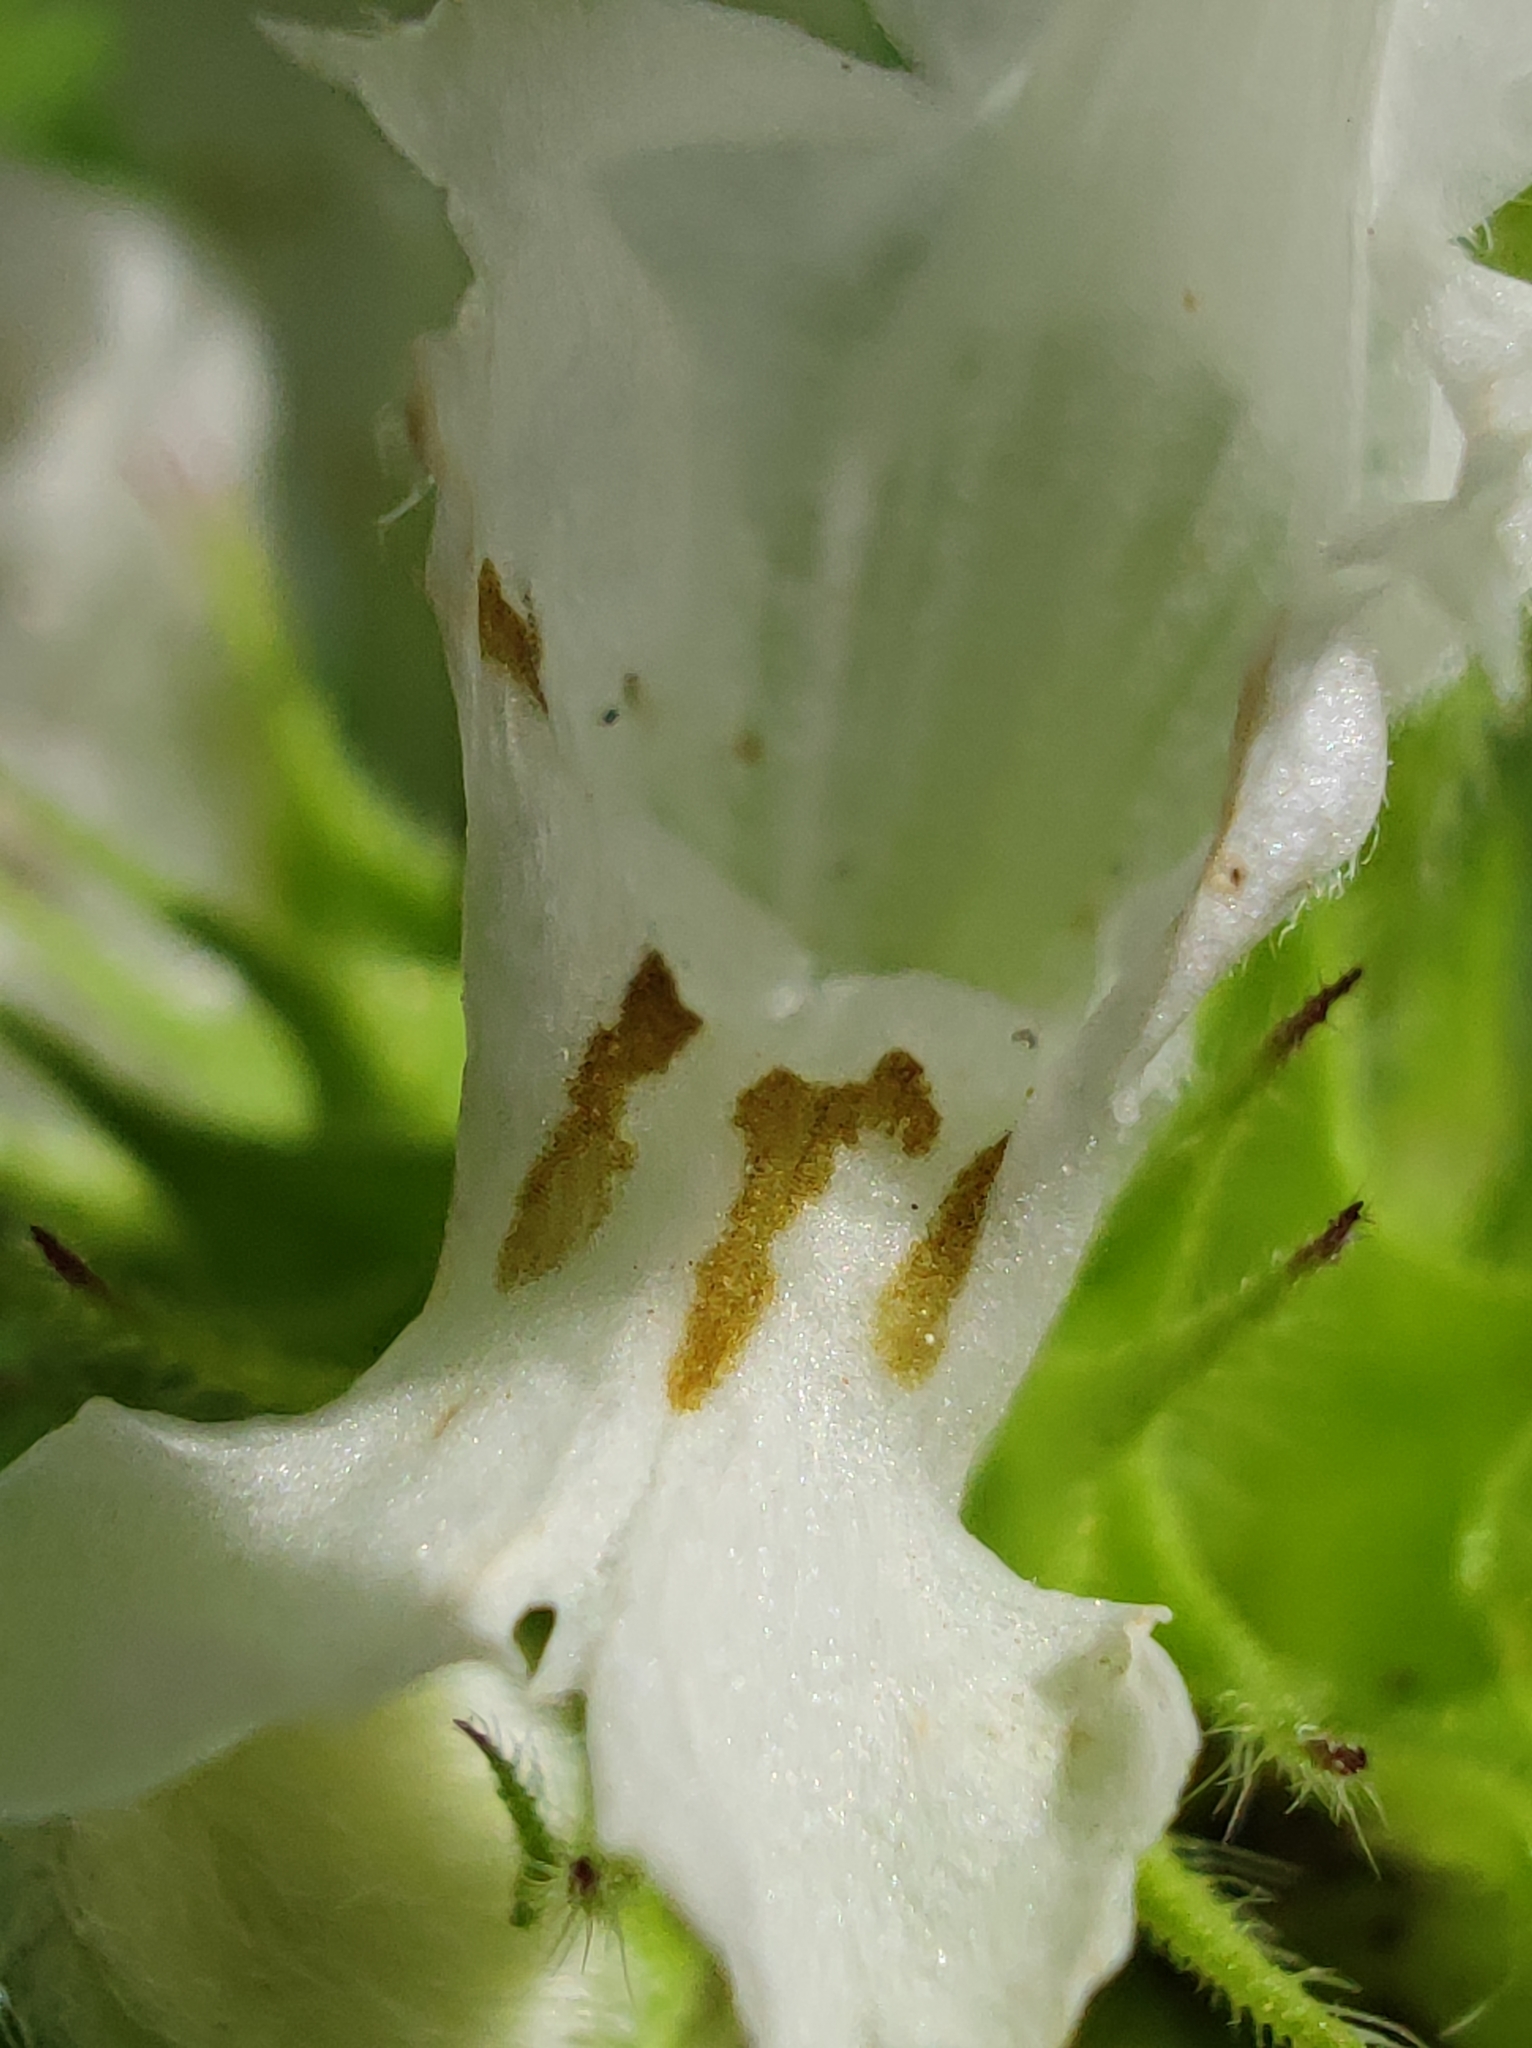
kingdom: Plantae
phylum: Tracheophyta
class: Magnoliopsida
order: Lamiales
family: Lamiaceae
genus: Lamium
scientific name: Lamium album
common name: White dead-nettle
